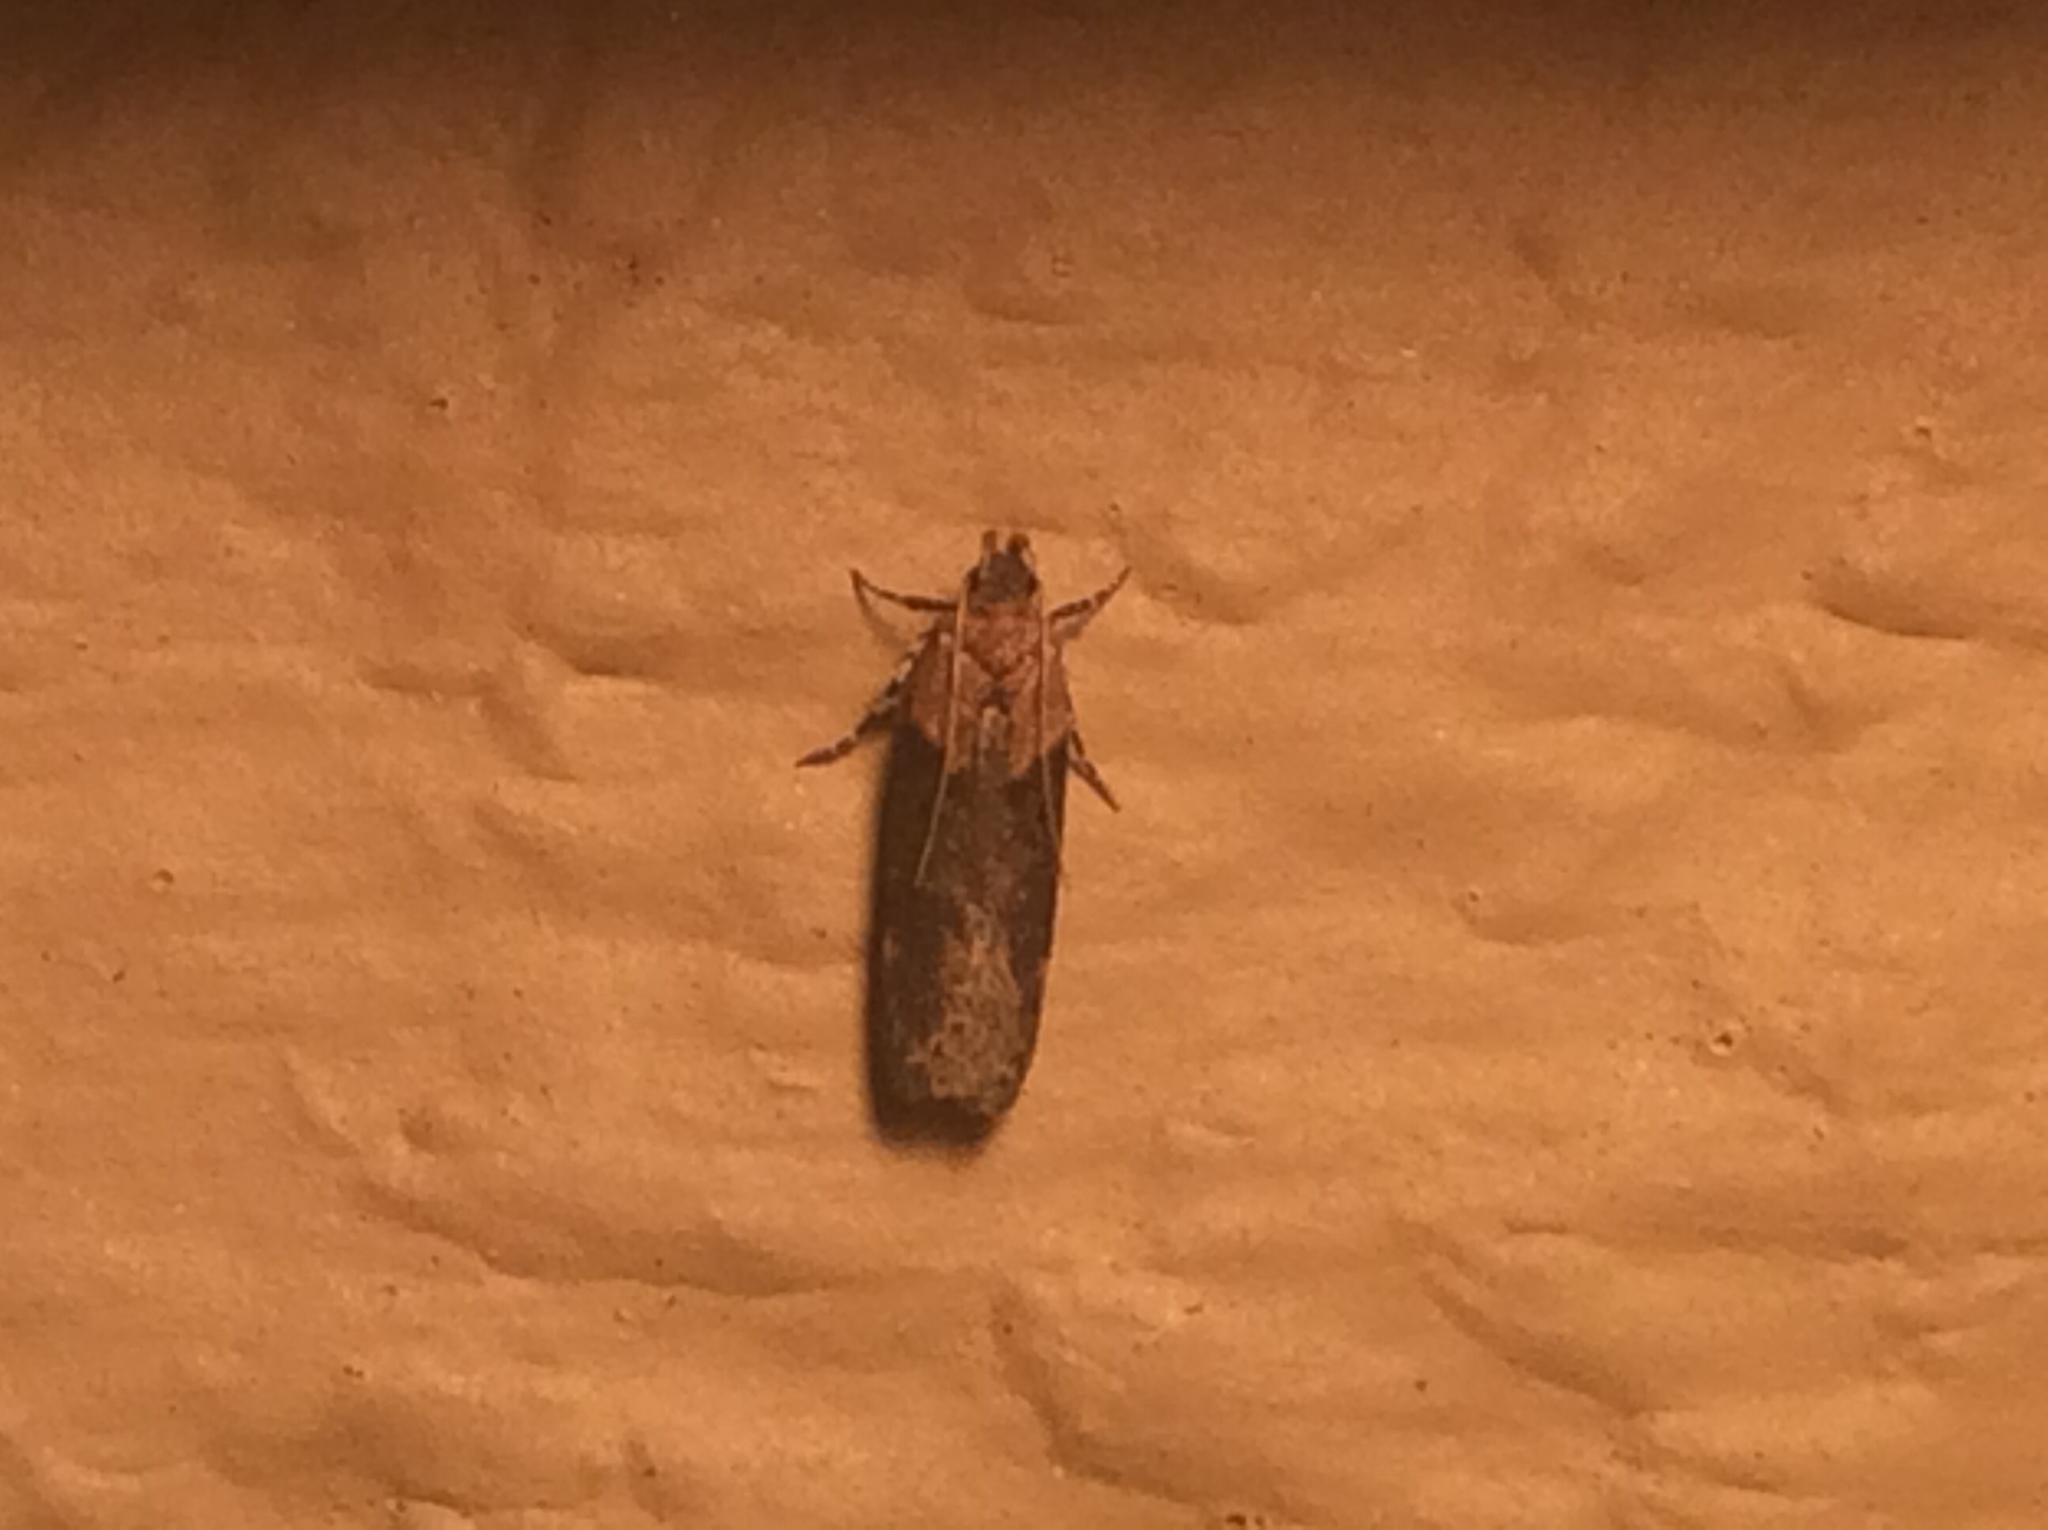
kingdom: Animalia
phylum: Arthropoda
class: Insecta
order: Lepidoptera
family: Gelechiidae
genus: Chionodes
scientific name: Chionodes mediofuscella
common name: Black-smudged chionodes moth
